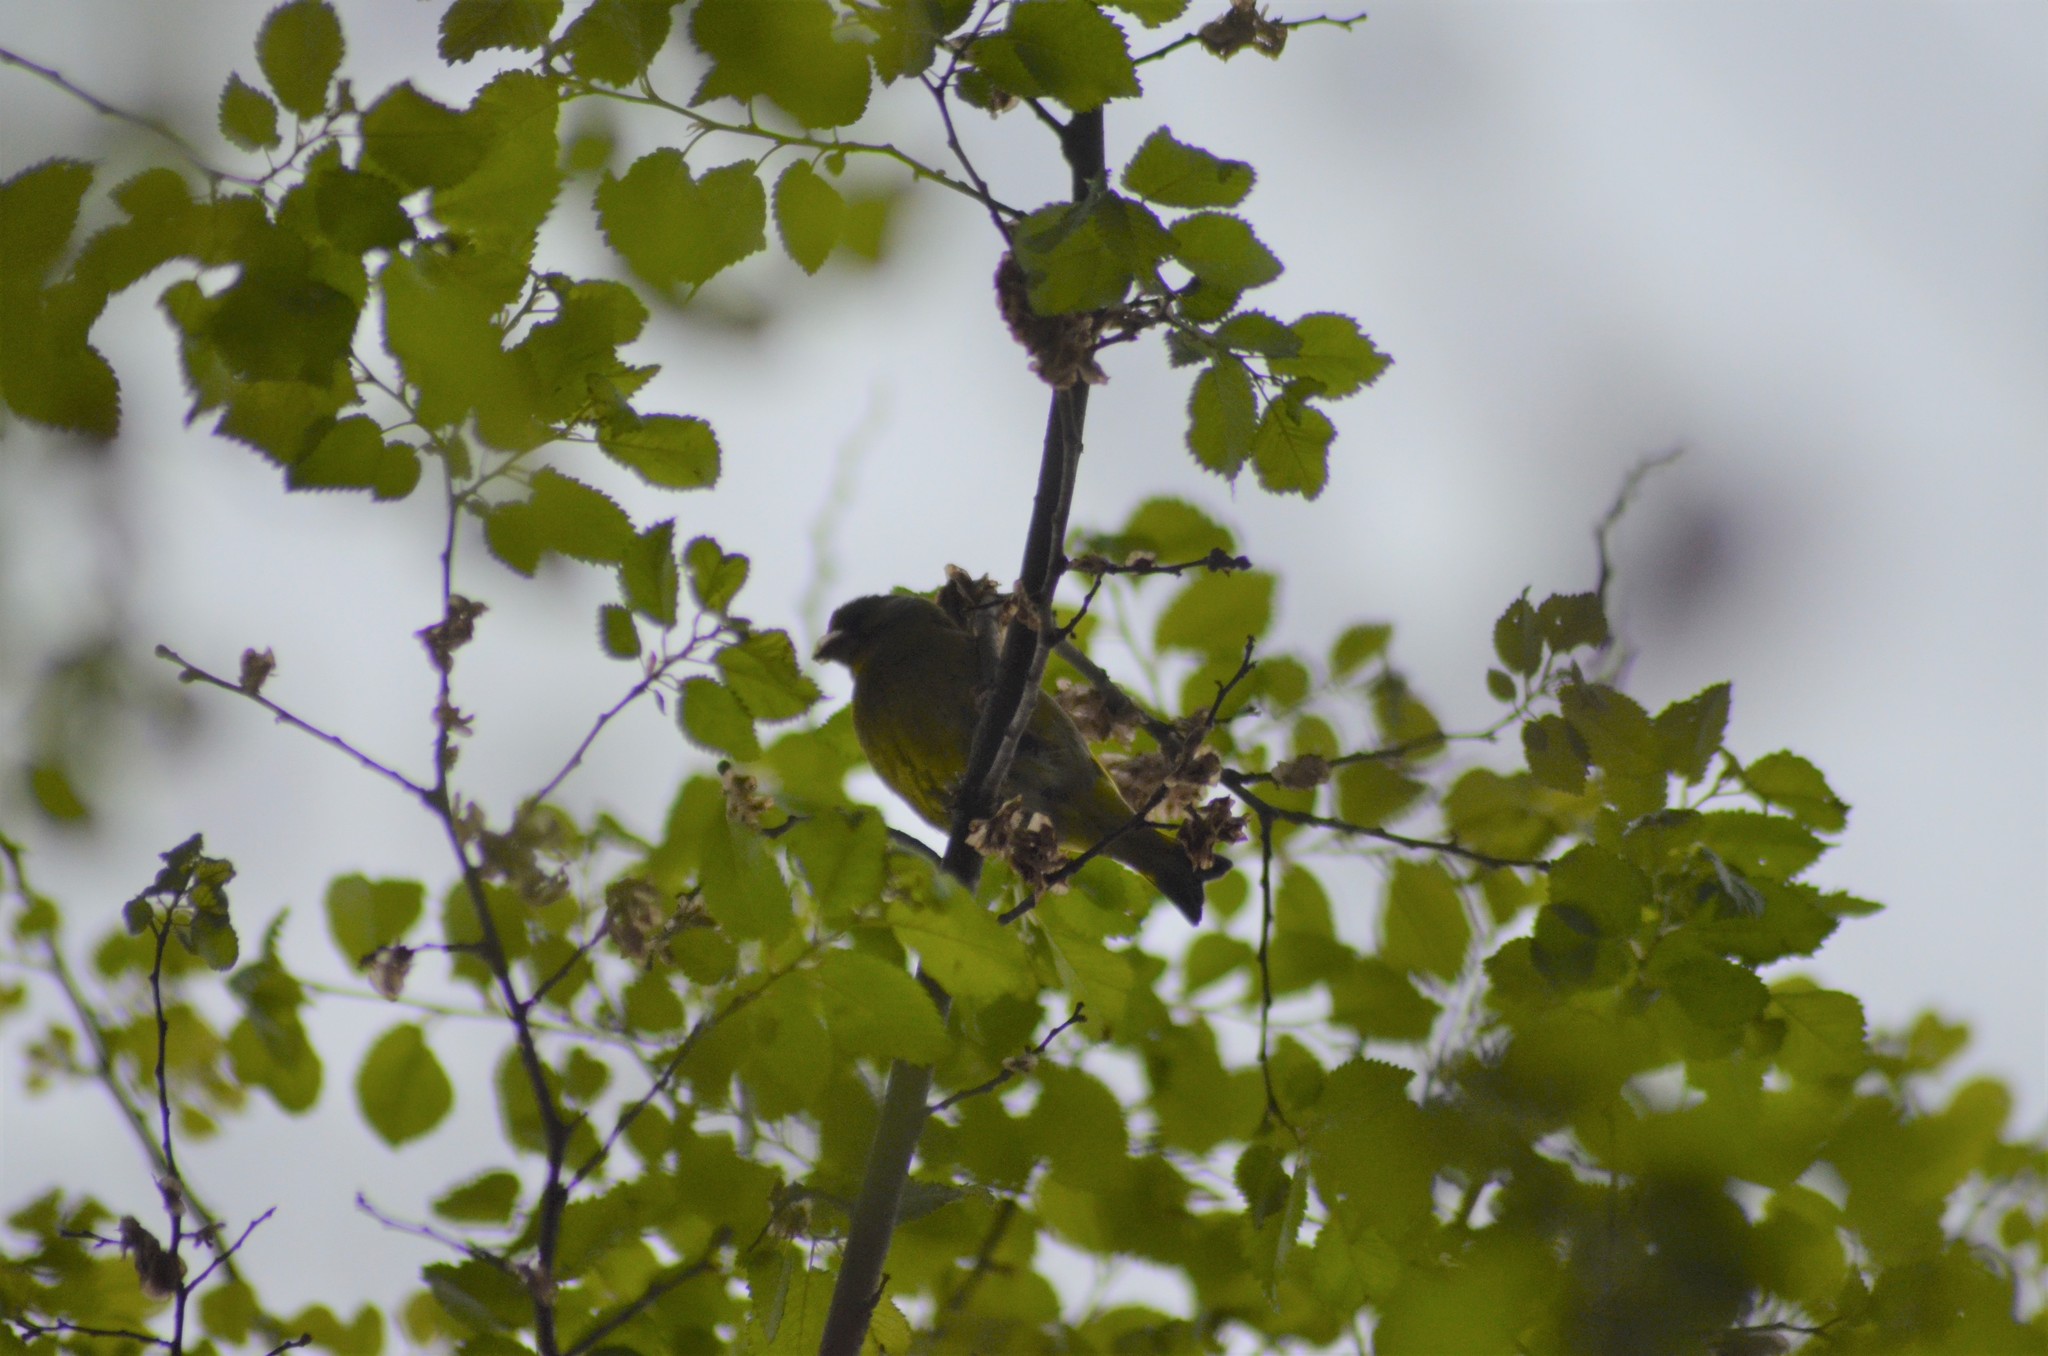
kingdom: Plantae
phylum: Tracheophyta
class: Liliopsida
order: Poales
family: Poaceae
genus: Chloris
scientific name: Chloris chloris
